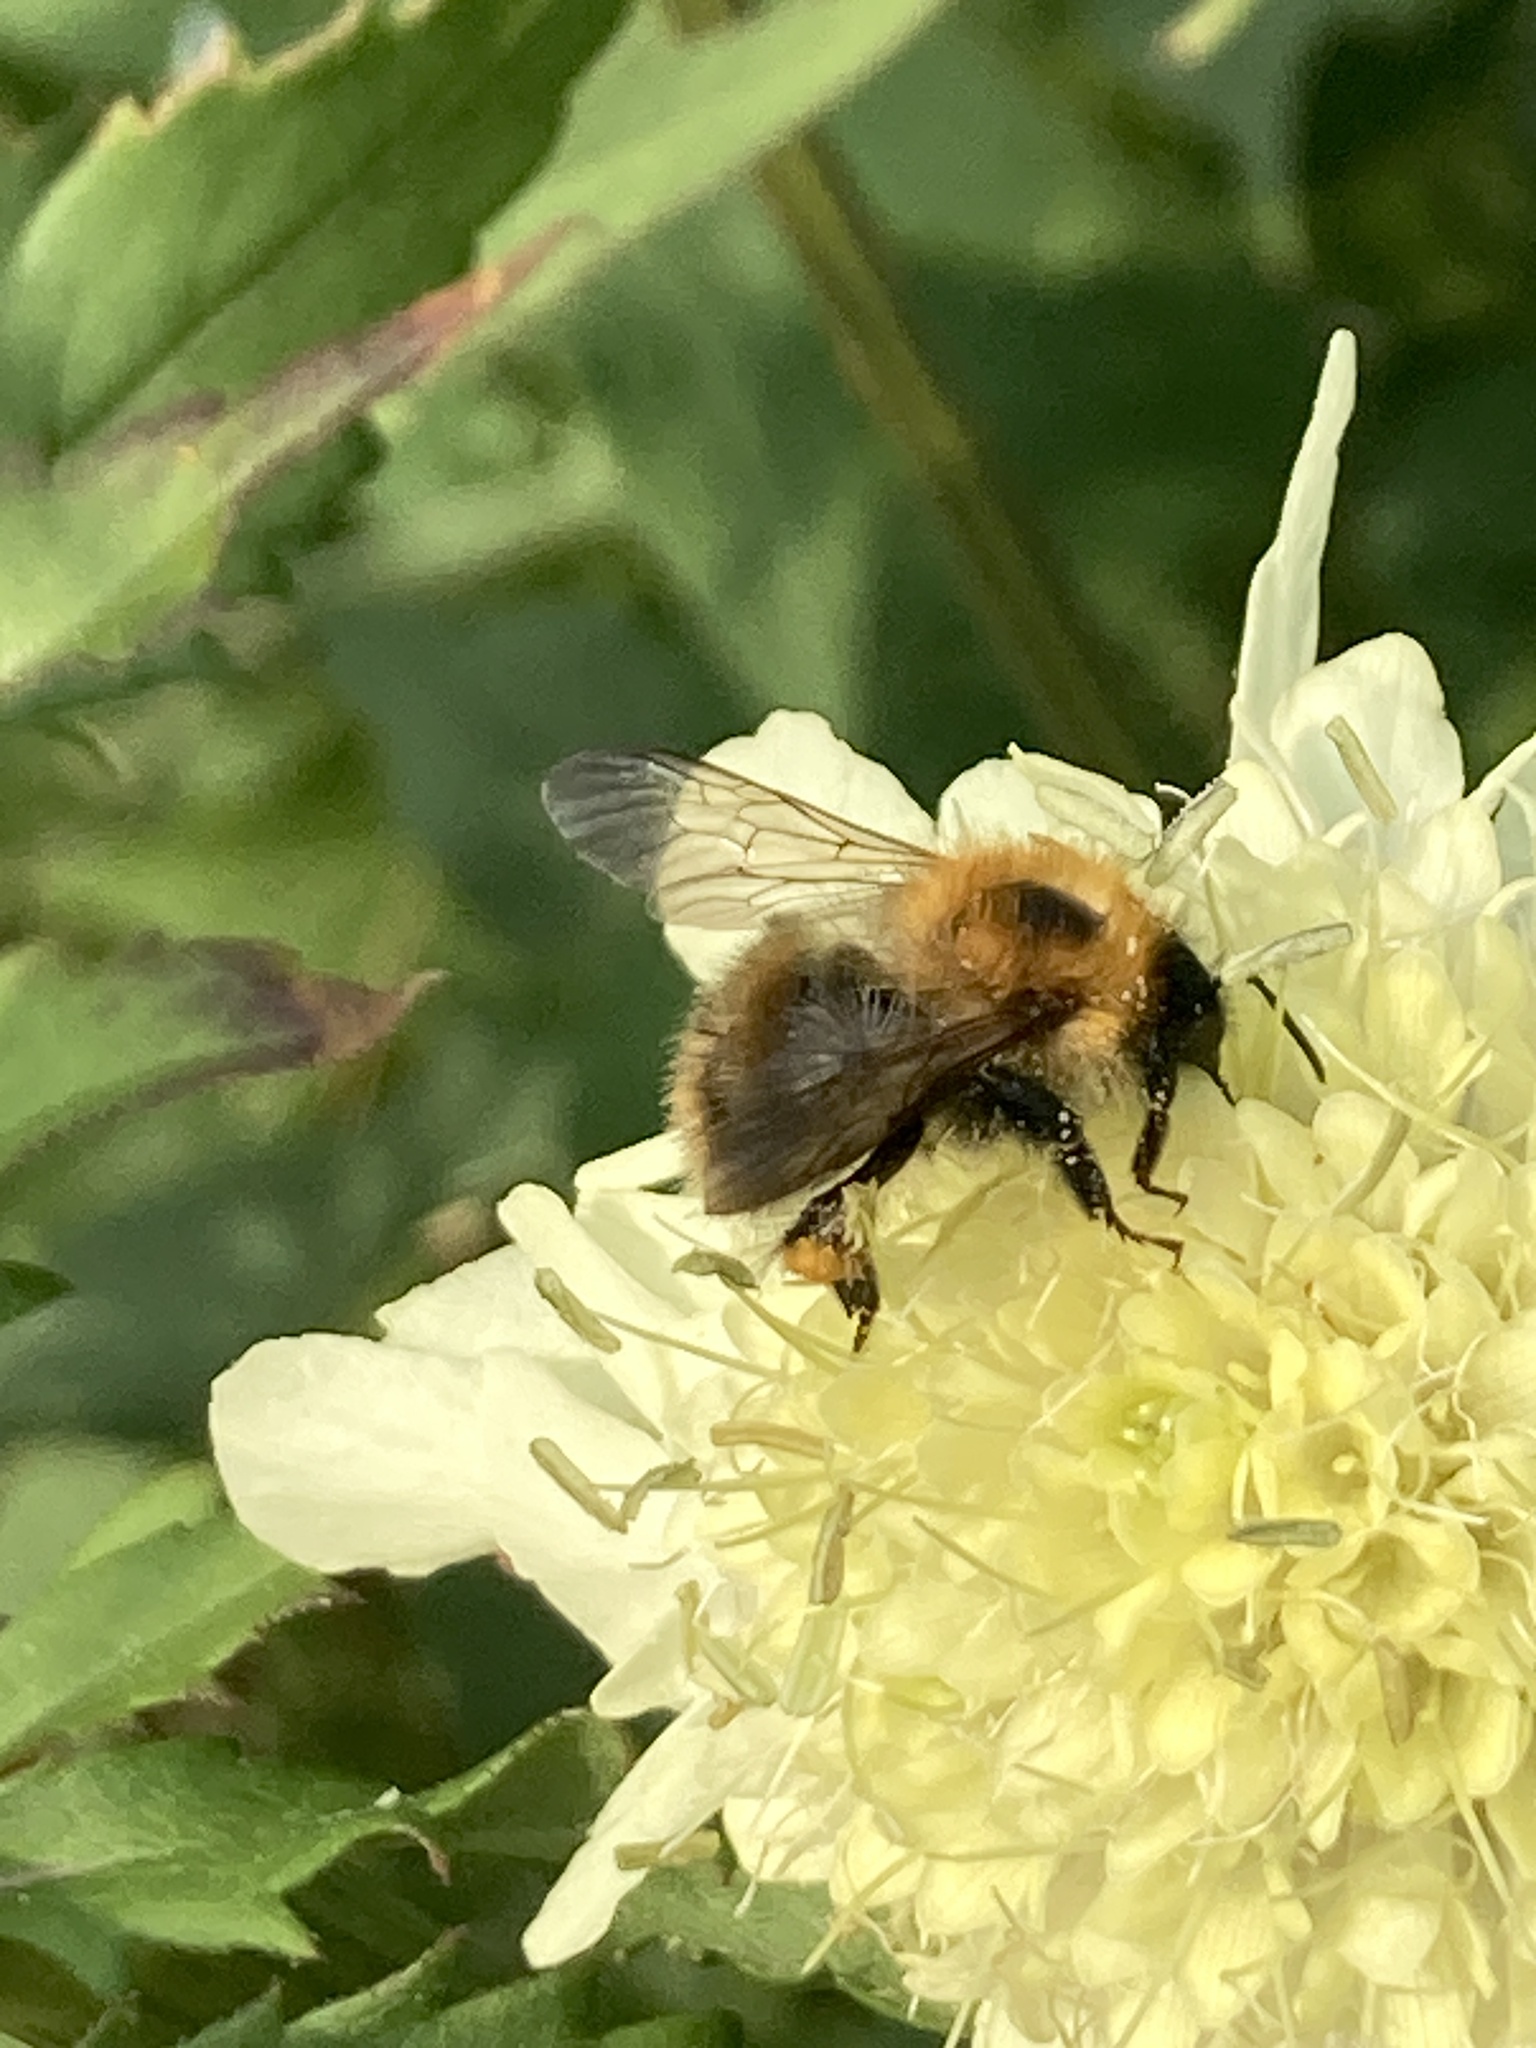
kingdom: Animalia
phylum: Arthropoda
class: Insecta
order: Hymenoptera
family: Apidae
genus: Bombus
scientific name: Bombus pascuorum
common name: Common carder bee
